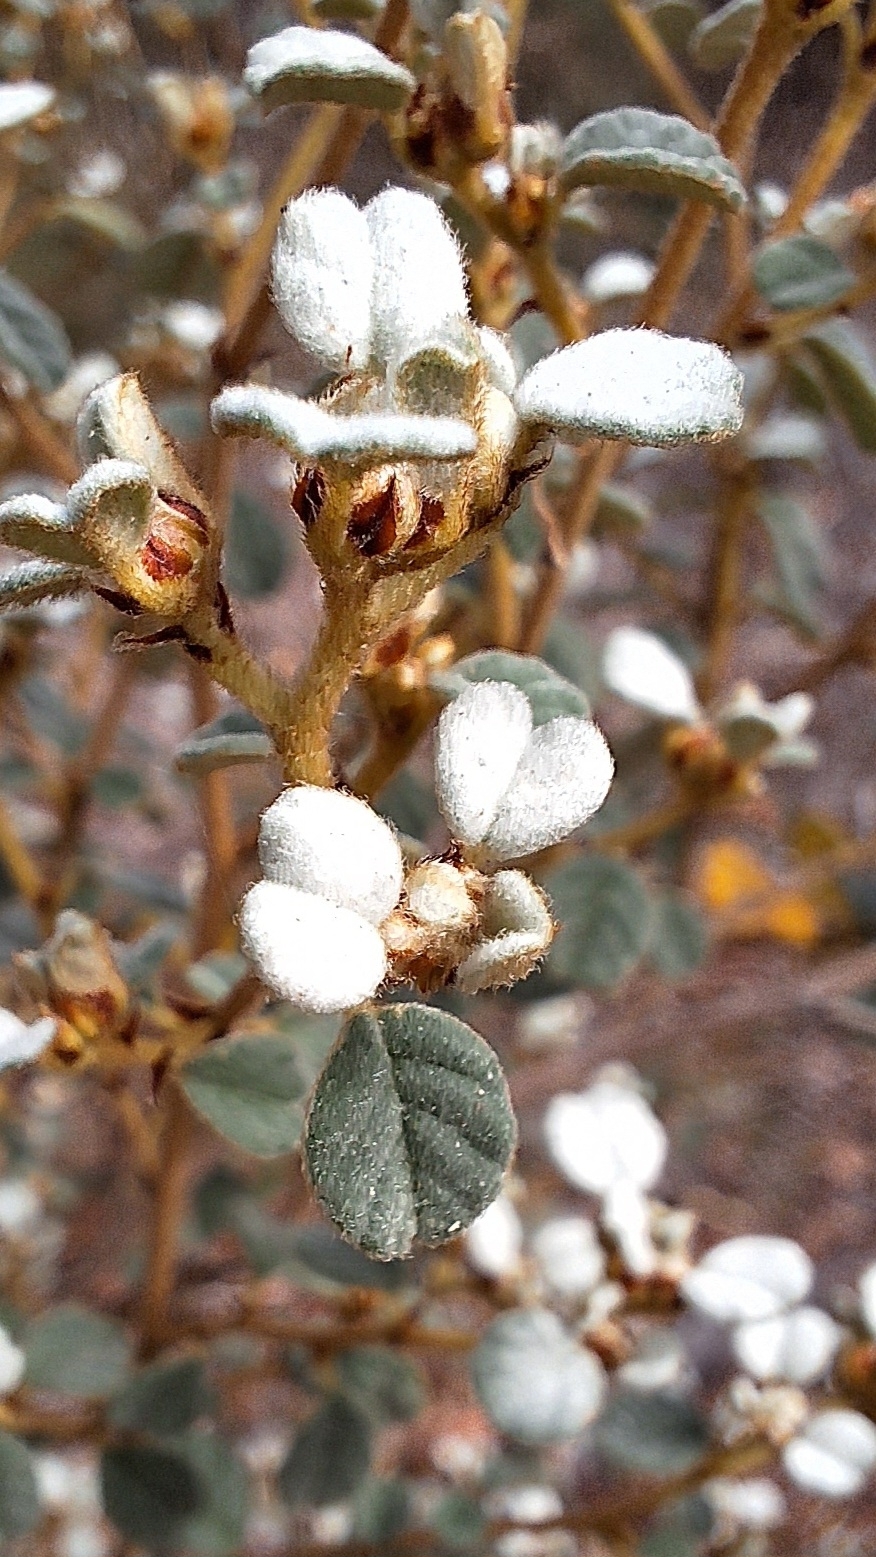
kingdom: Plantae
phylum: Tracheophyta
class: Magnoliopsida
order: Rosales
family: Rhamnaceae
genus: Spyridium
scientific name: Spyridium parvifolium
